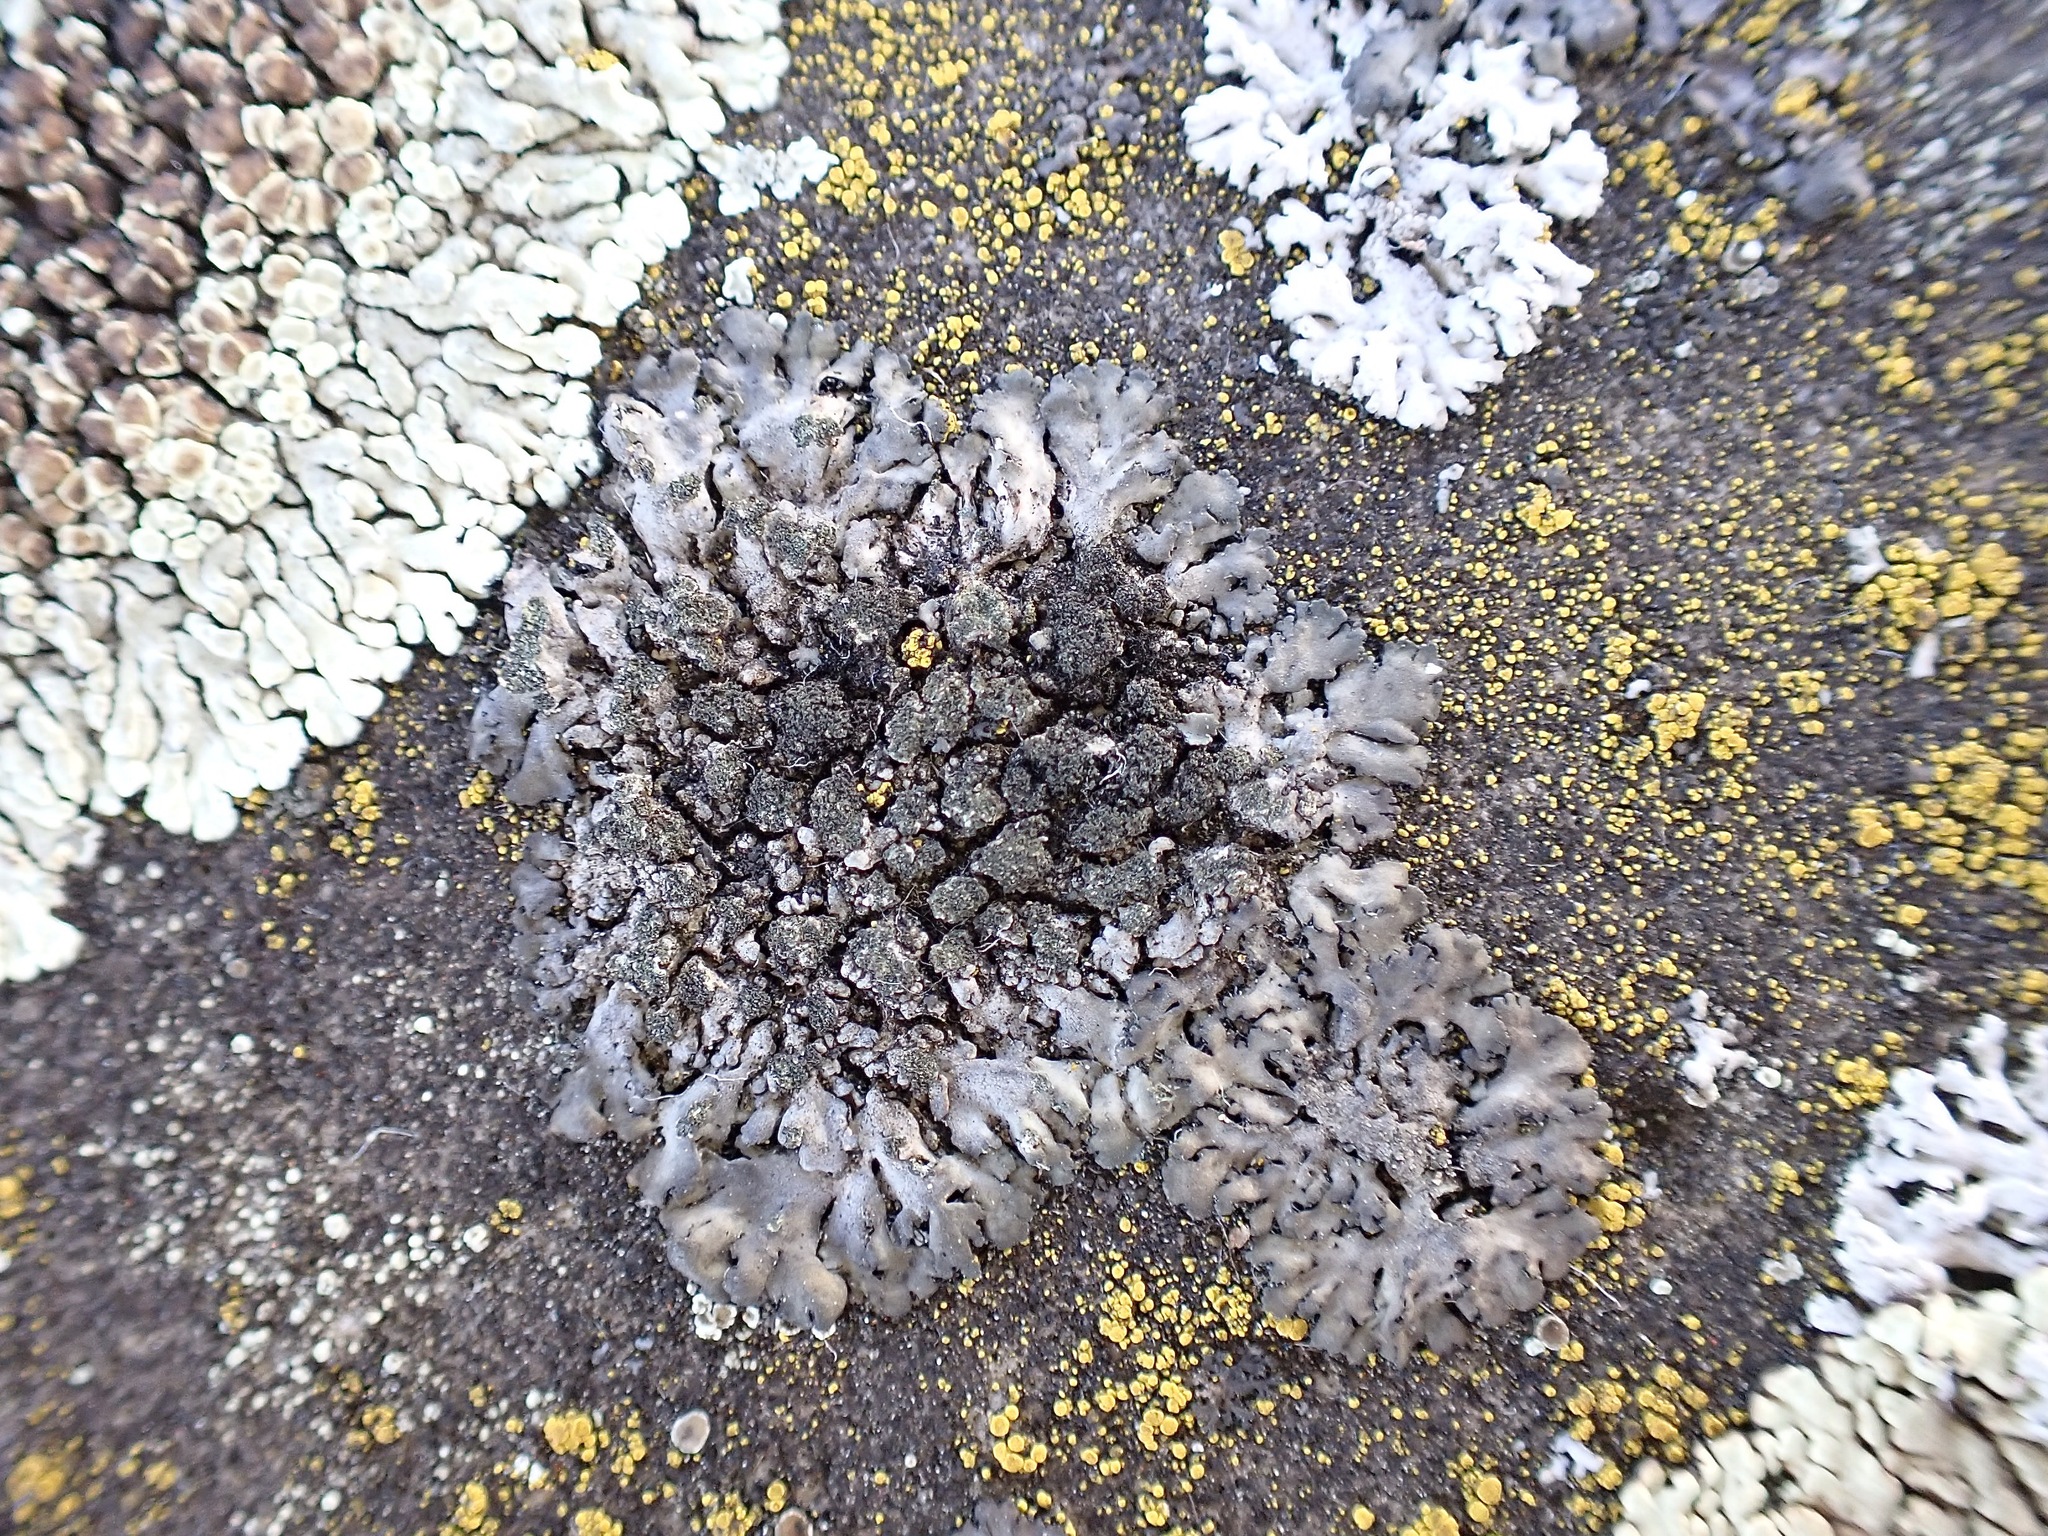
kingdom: Fungi
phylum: Ascomycota
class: Lecanoromycetes
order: Caliciales
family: Physciaceae
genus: Physcia
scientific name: Physcia caesia
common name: Blue-gray rosette lichen
